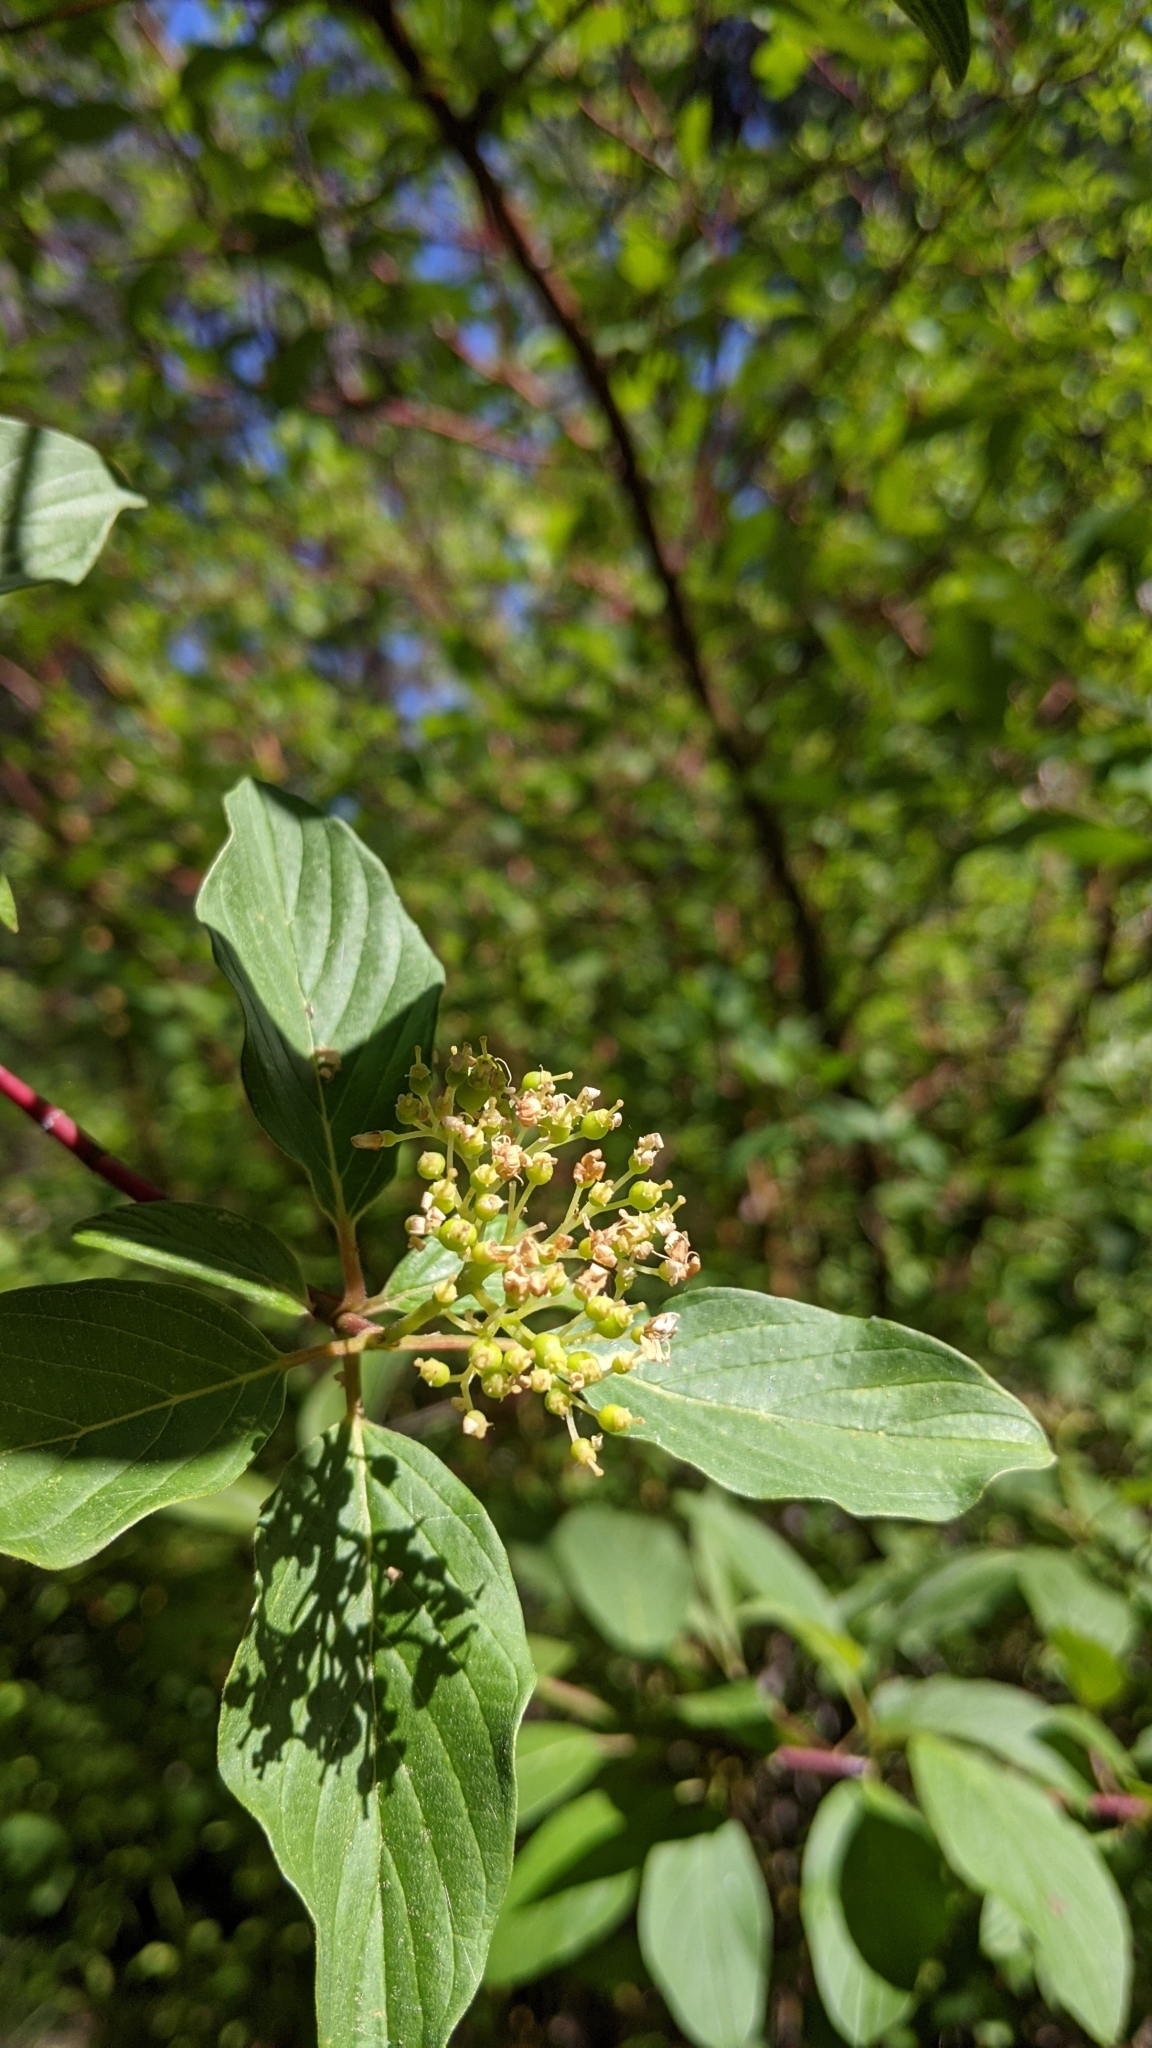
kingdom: Plantae
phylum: Tracheophyta
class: Magnoliopsida
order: Cornales
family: Cornaceae
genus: Cornus
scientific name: Cornus sericea
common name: Red-osier dogwood
